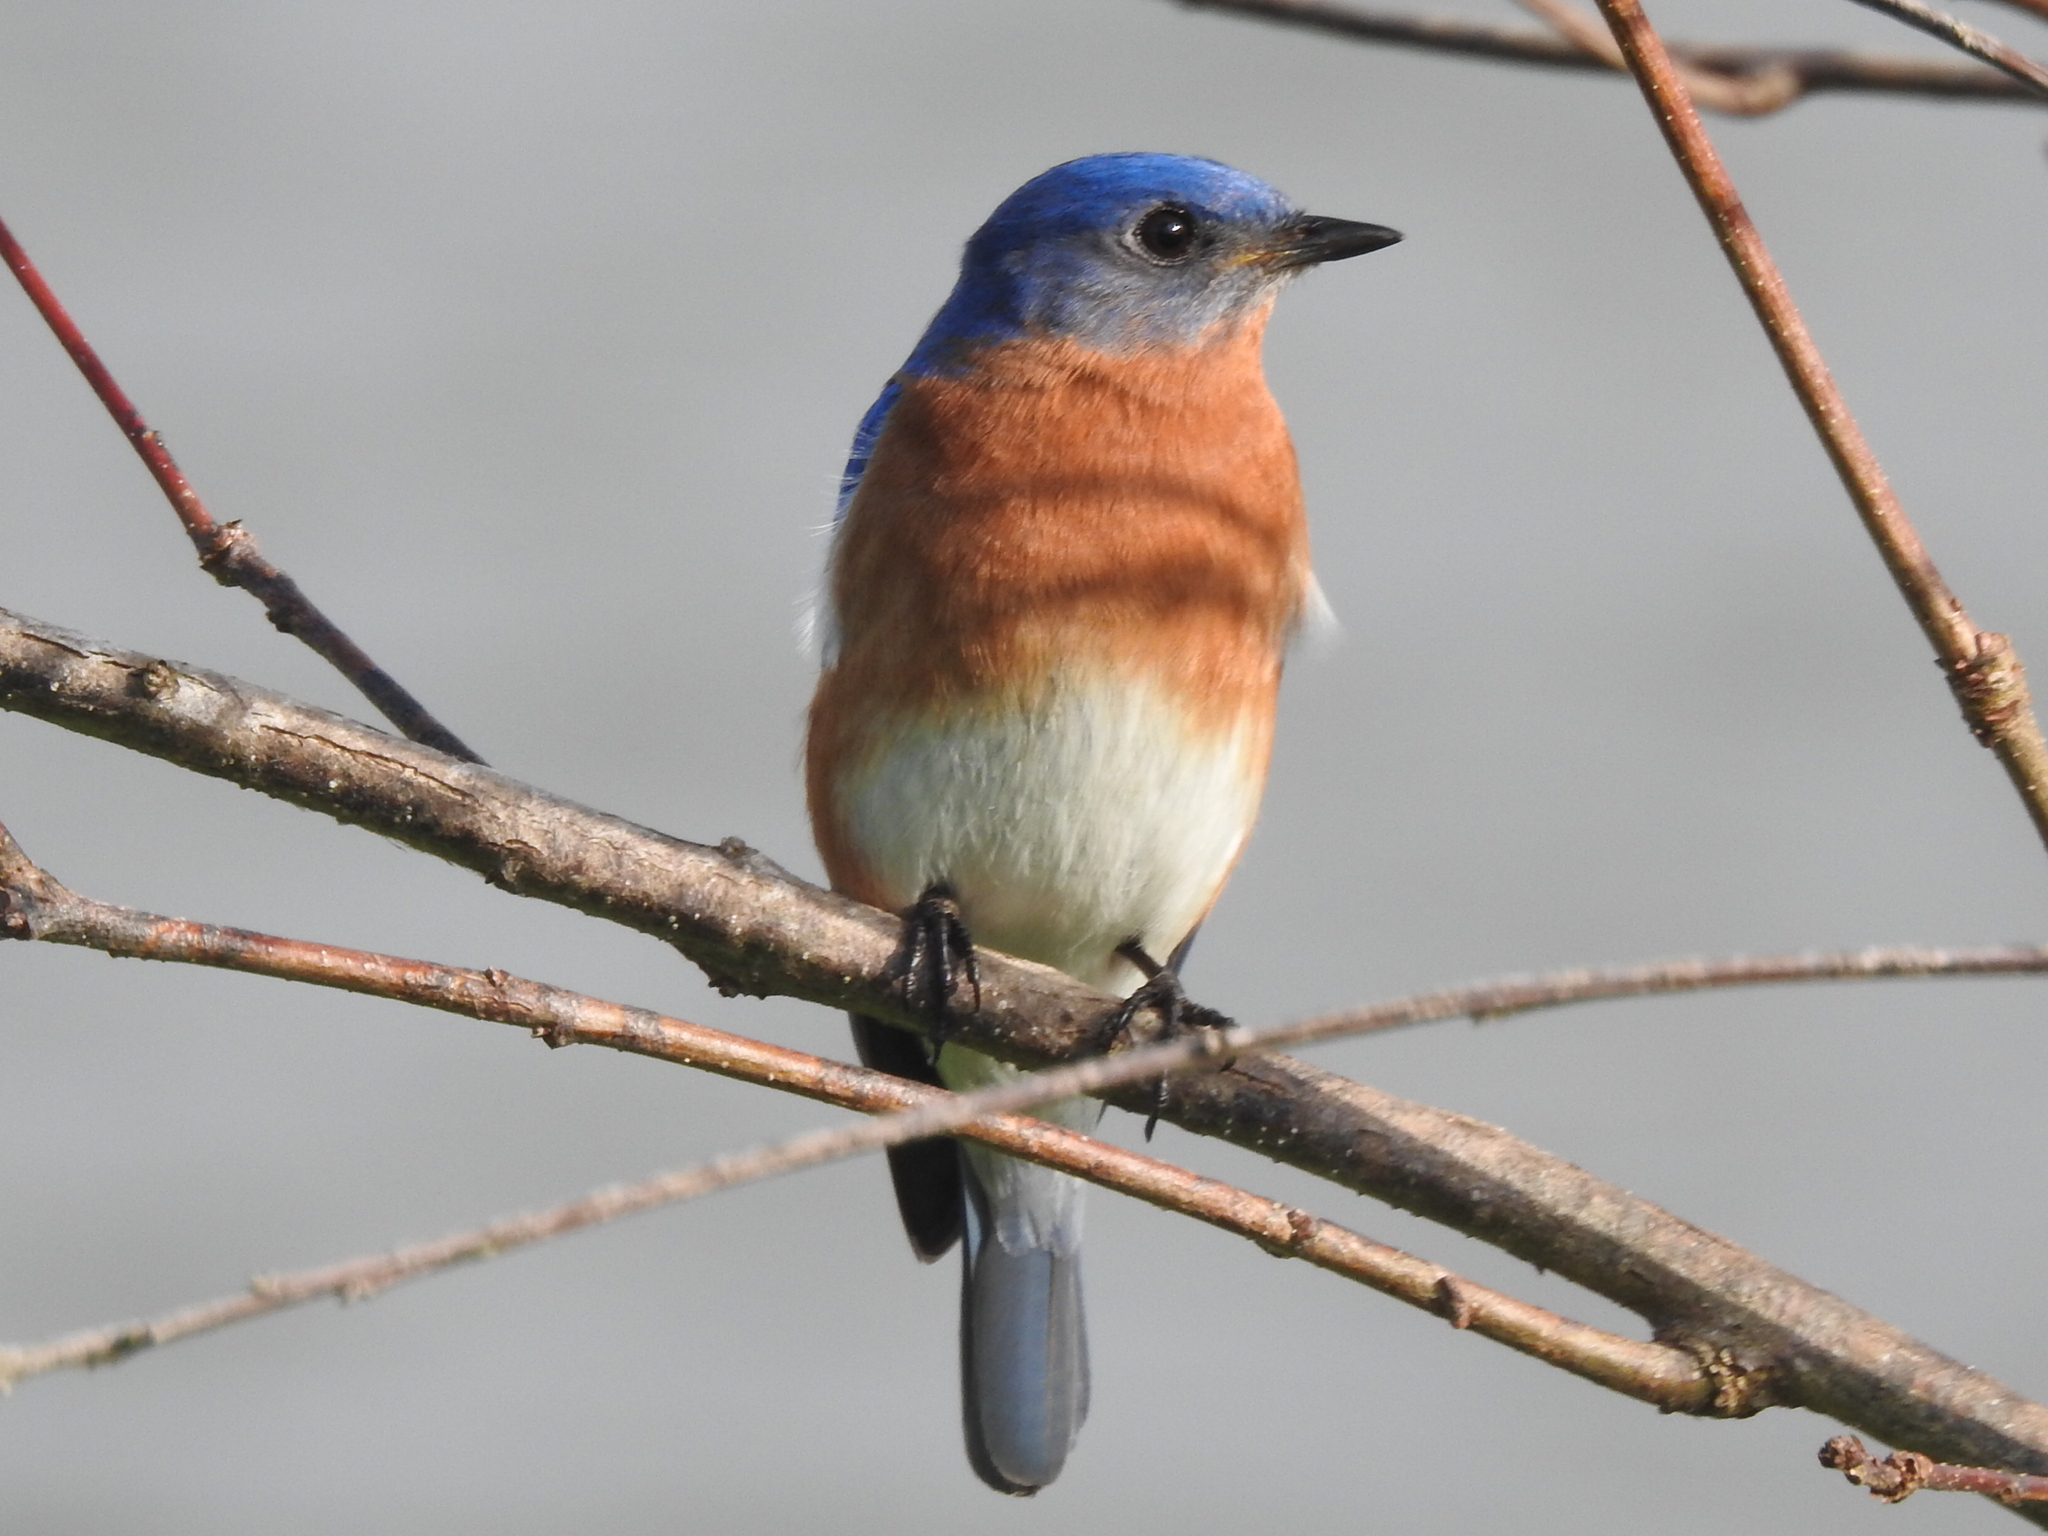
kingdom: Animalia
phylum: Chordata
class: Aves
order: Passeriformes
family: Turdidae
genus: Sialia
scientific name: Sialia sialis
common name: Eastern bluebird
